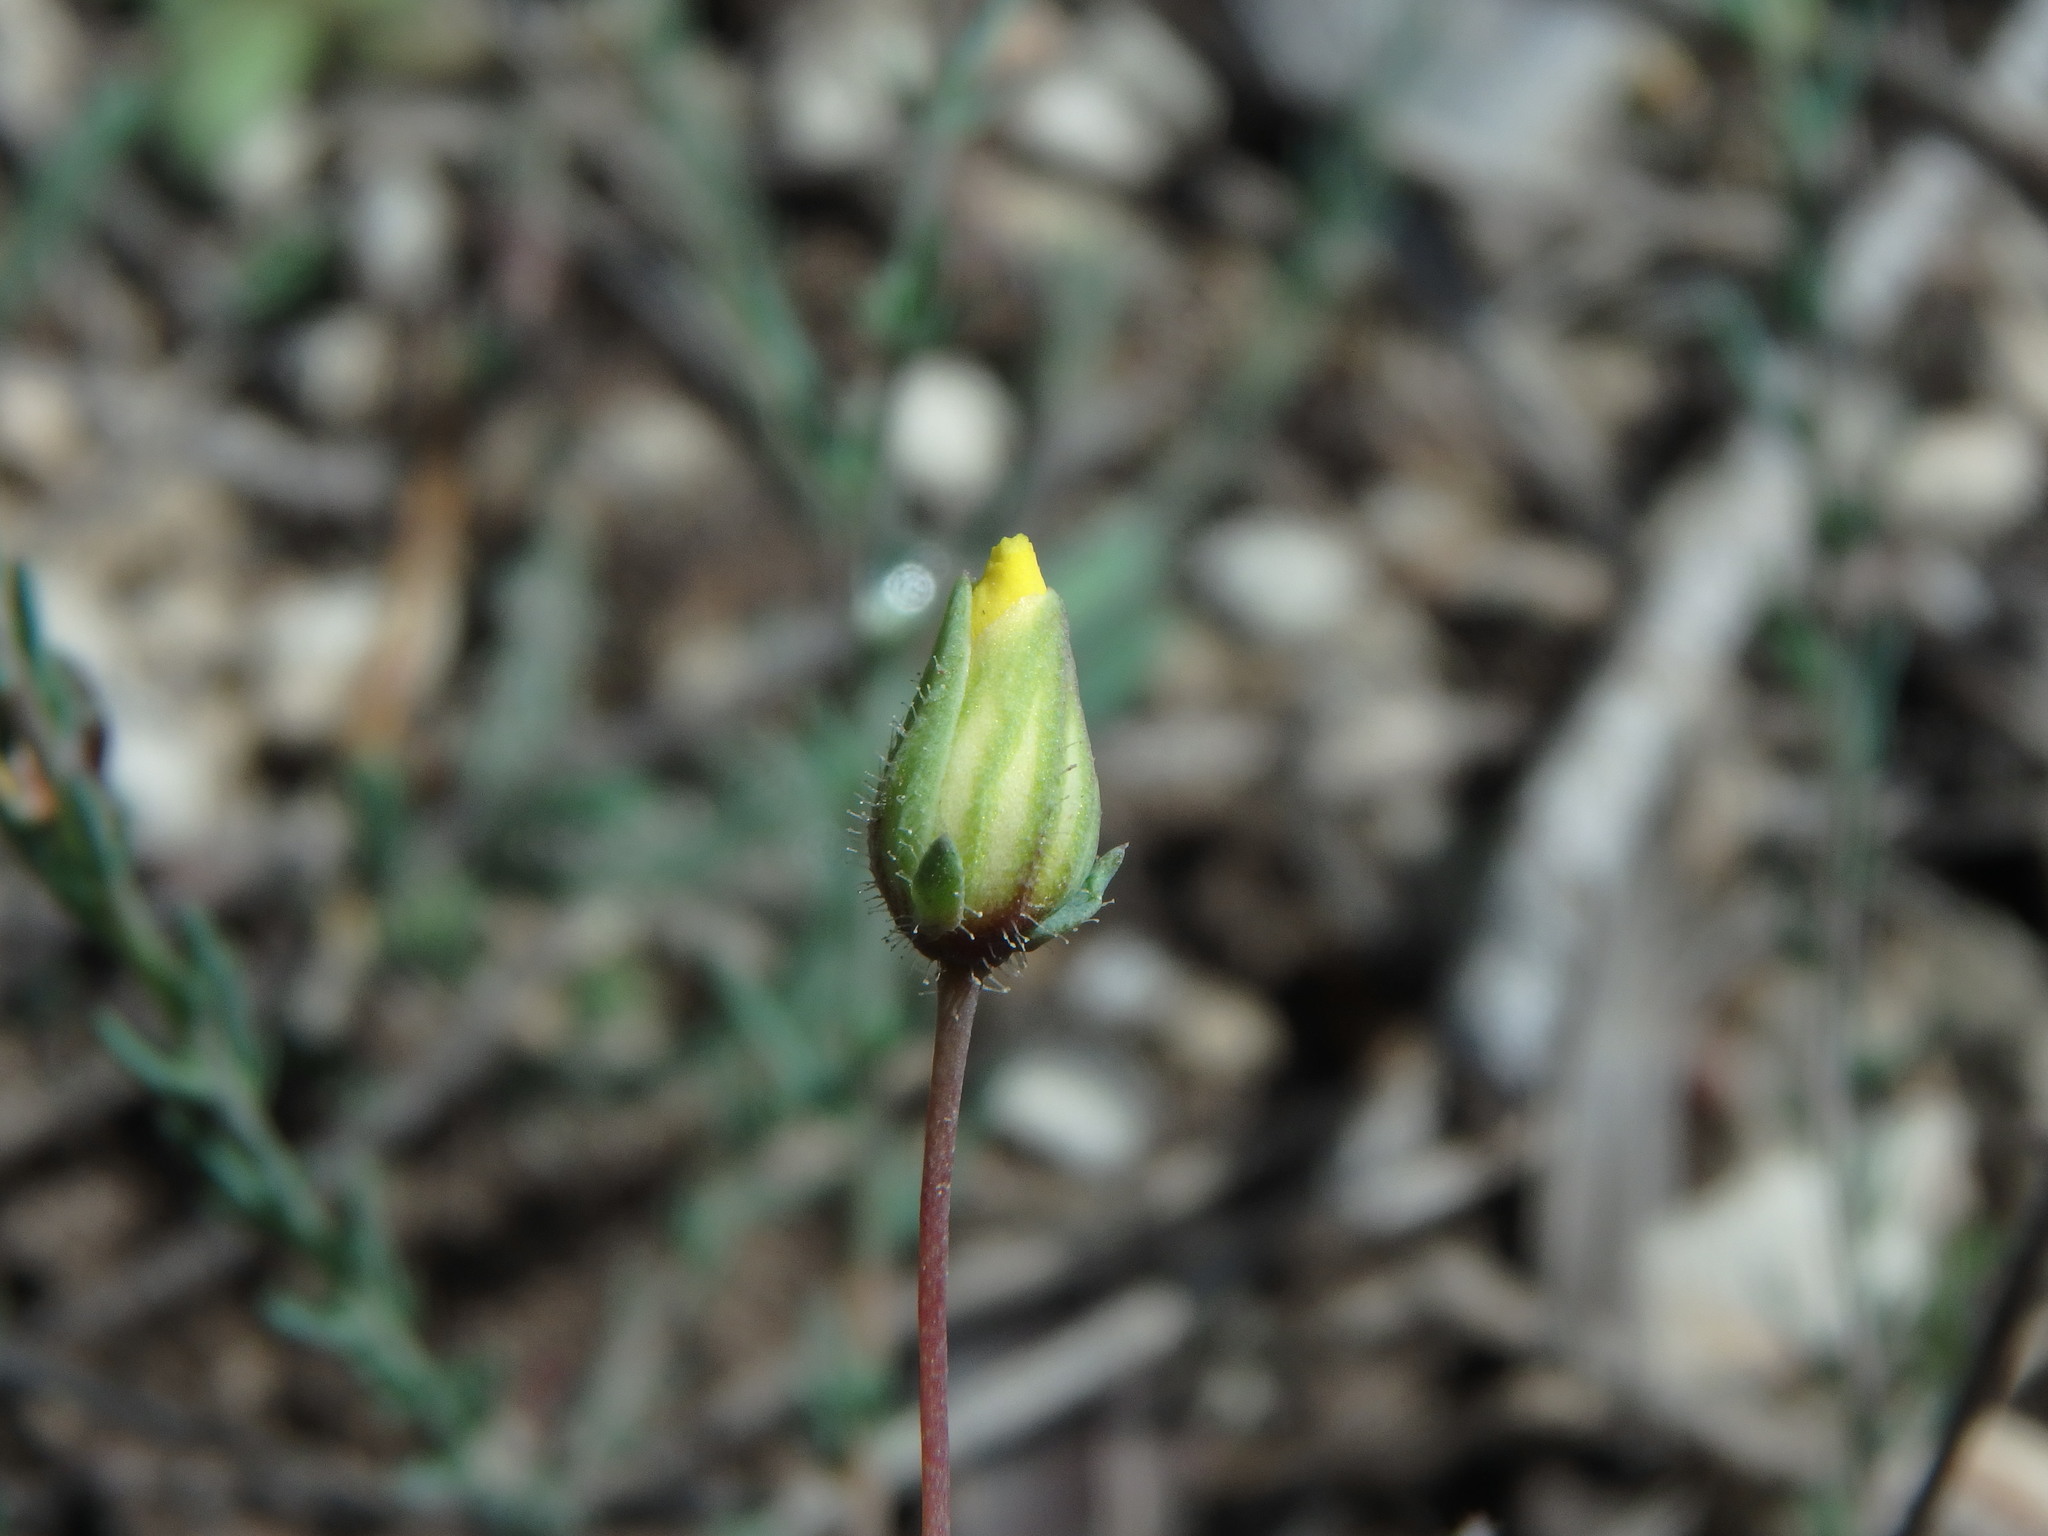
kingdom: Plantae
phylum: Tracheophyta
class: Magnoliopsida
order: Malvales
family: Cistaceae
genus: Fumana
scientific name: Fumana laevipes
